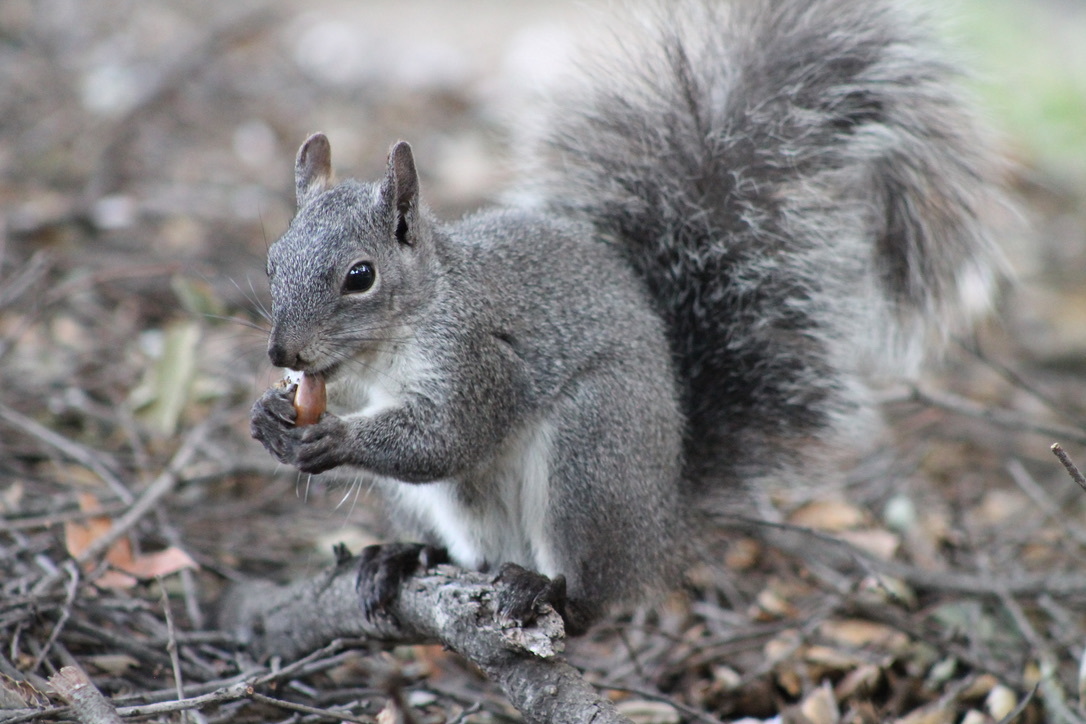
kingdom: Animalia
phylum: Chordata
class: Mammalia
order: Rodentia
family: Sciuridae
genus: Sciurus
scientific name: Sciurus griseus
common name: Western gray squirrel
